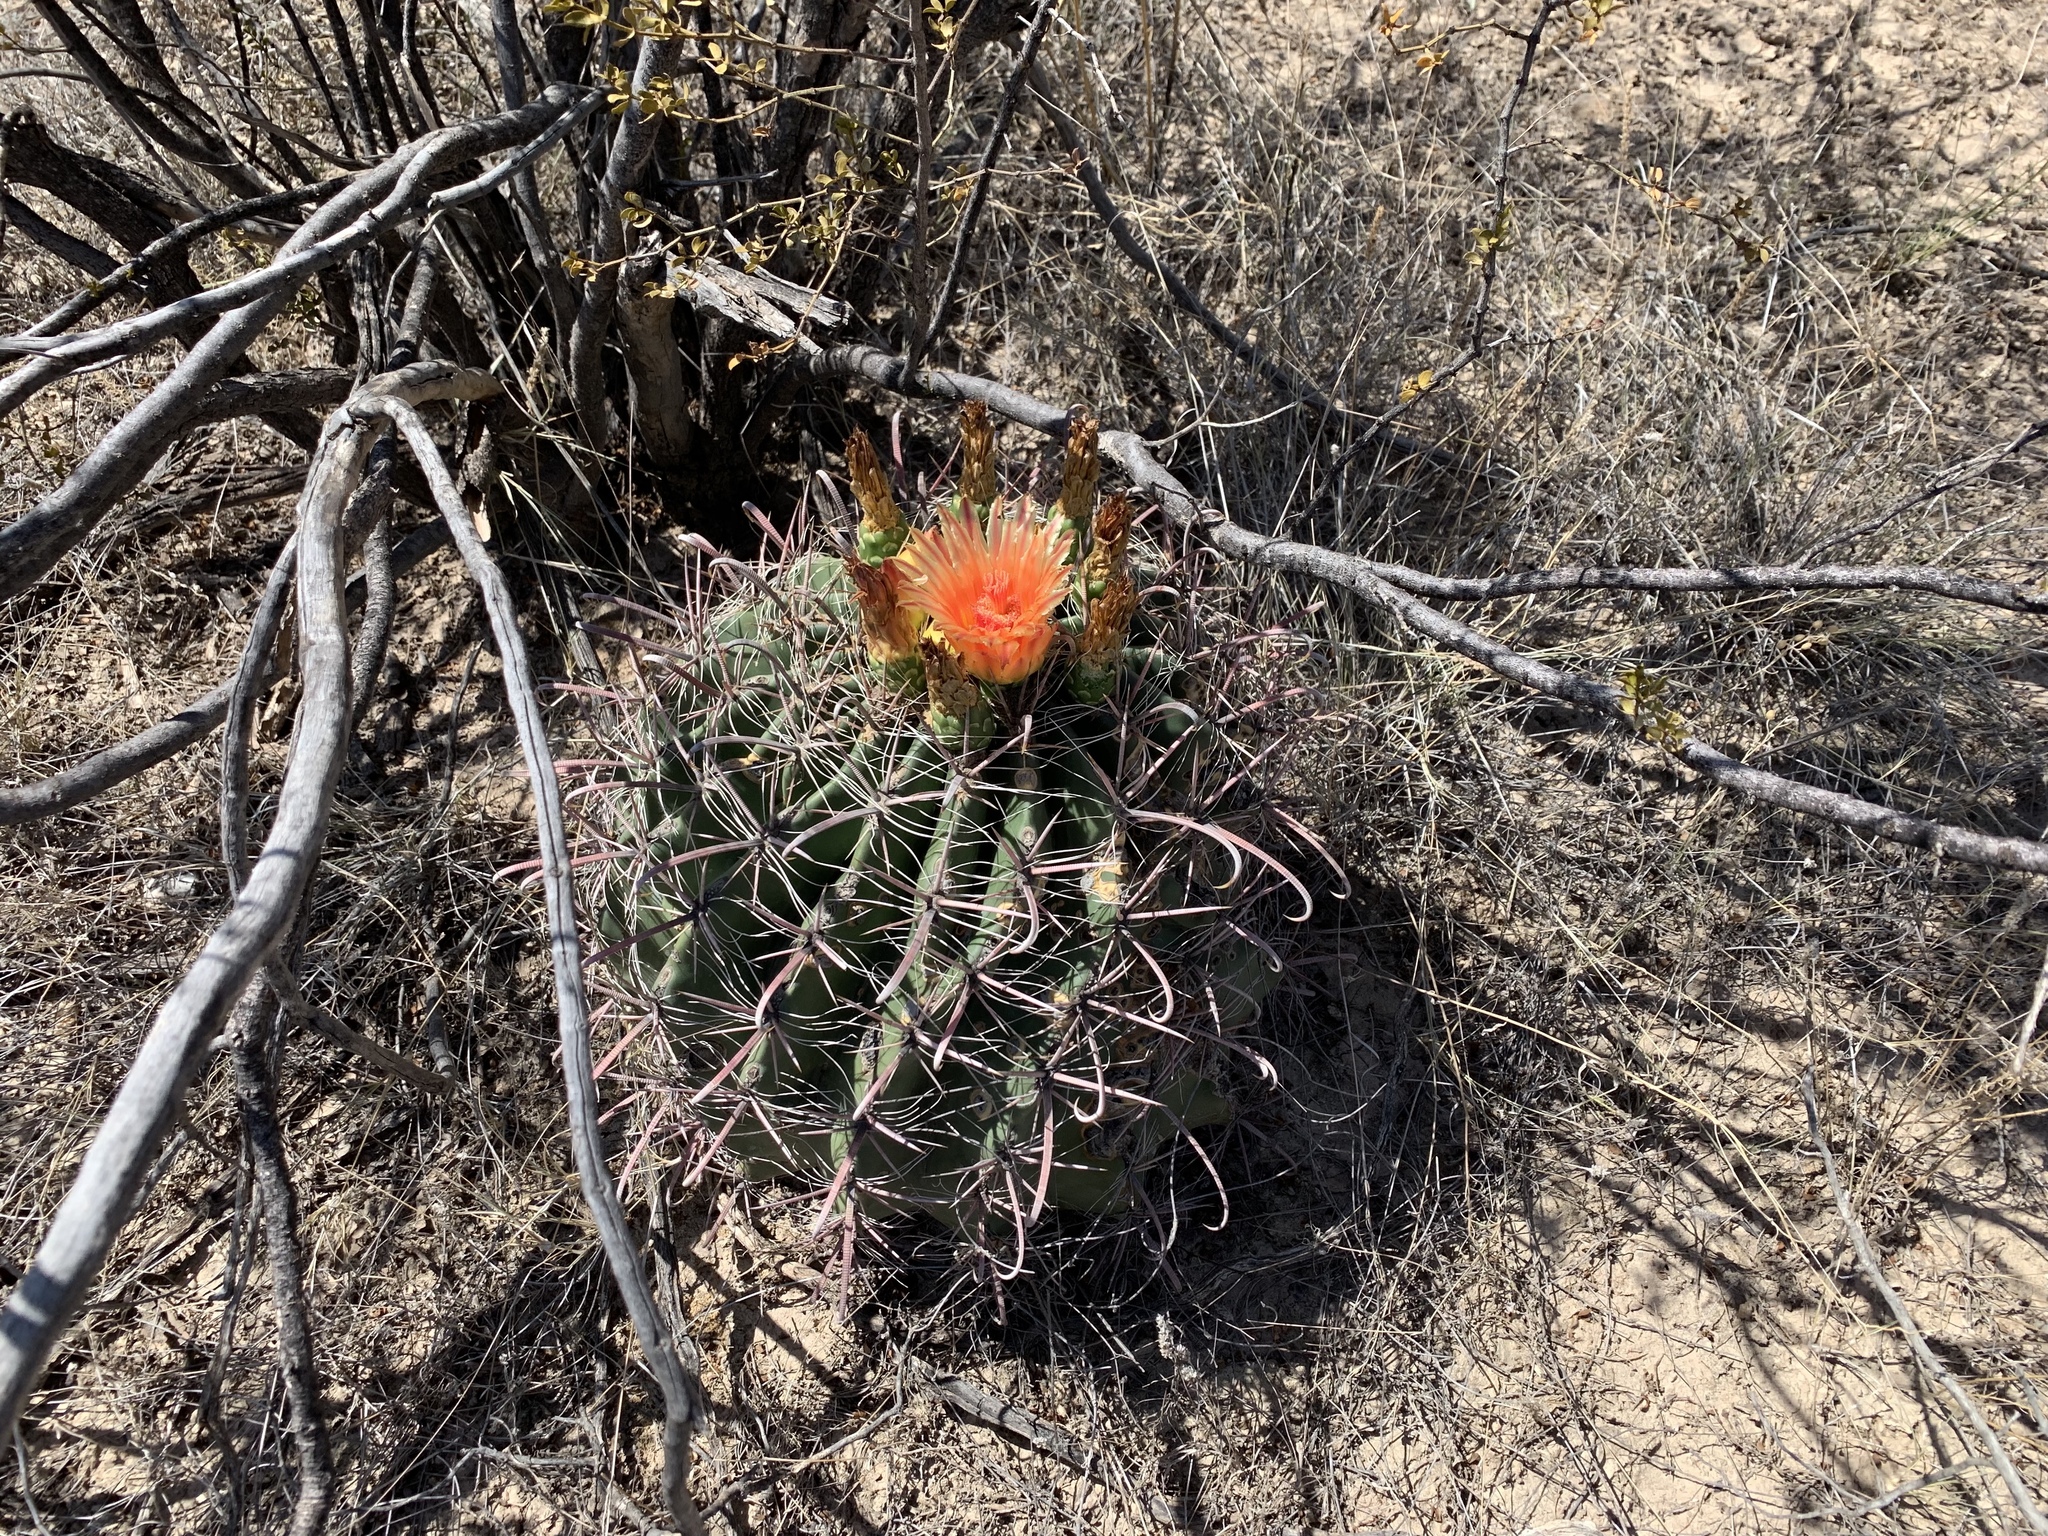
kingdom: Plantae
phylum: Tracheophyta
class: Magnoliopsida
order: Caryophyllales
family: Cactaceae
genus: Ferocactus
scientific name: Ferocactus wislizeni
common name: Candy barrel cactus
